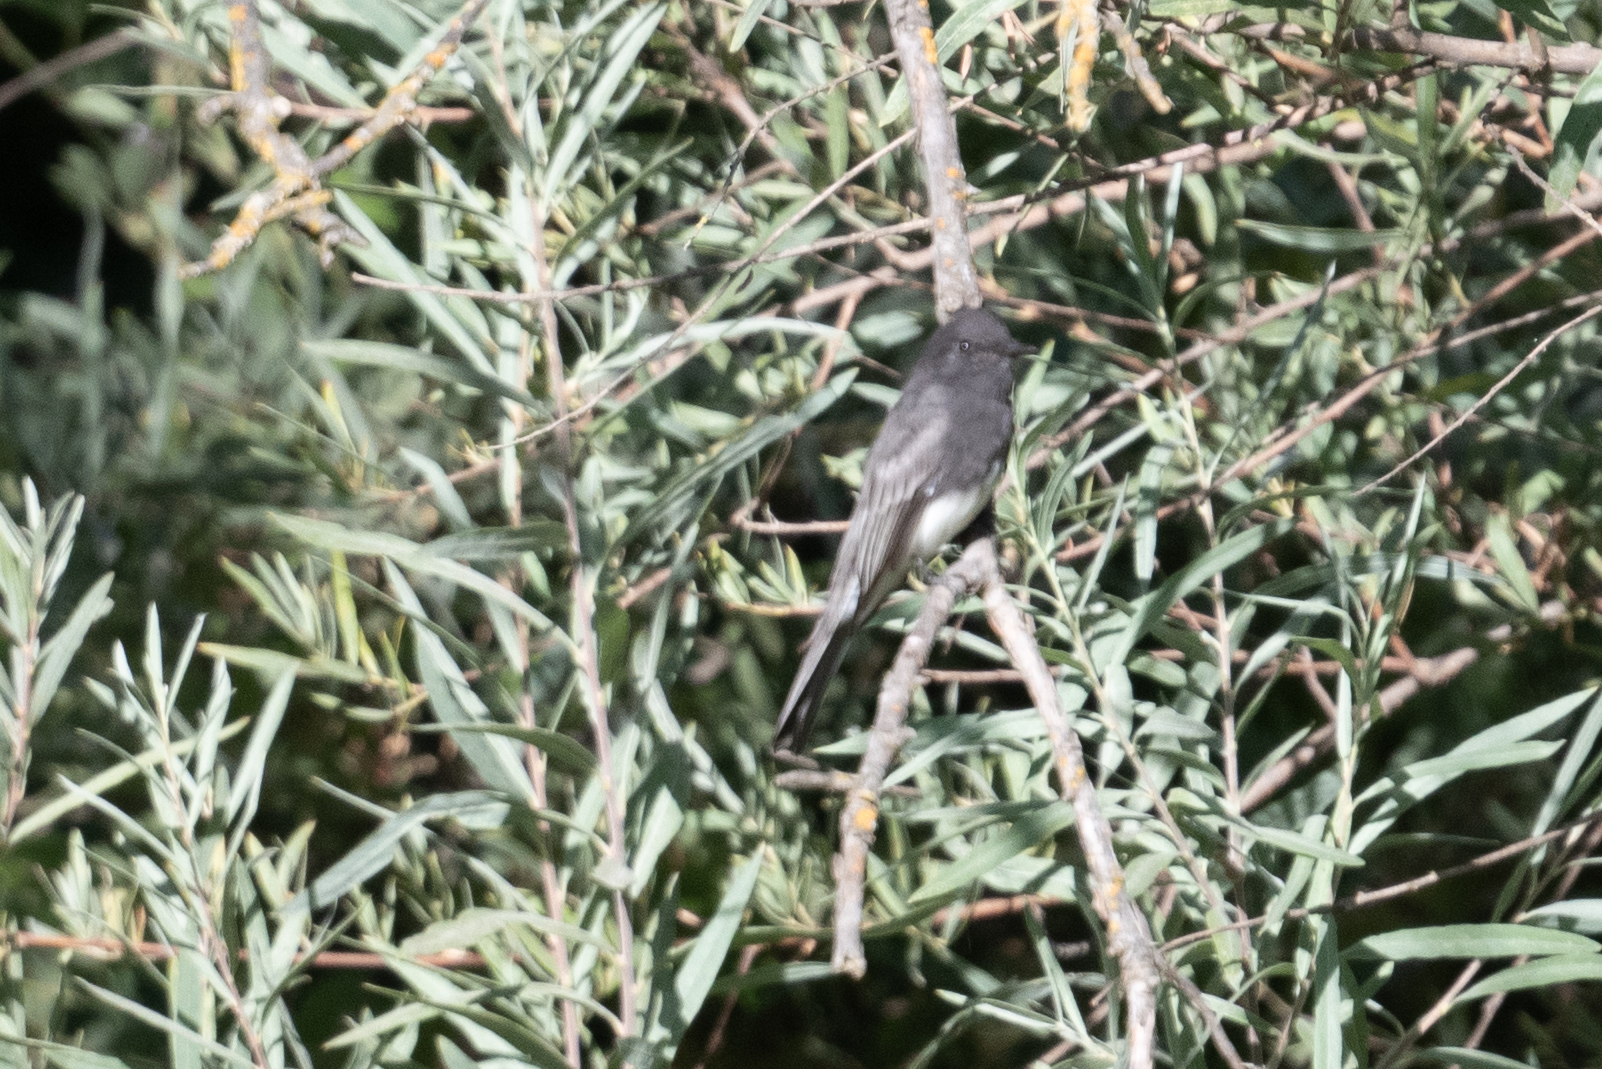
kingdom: Animalia
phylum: Chordata
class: Aves
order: Passeriformes
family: Tyrannidae
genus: Sayornis
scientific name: Sayornis nigricans
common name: Black phoebe
